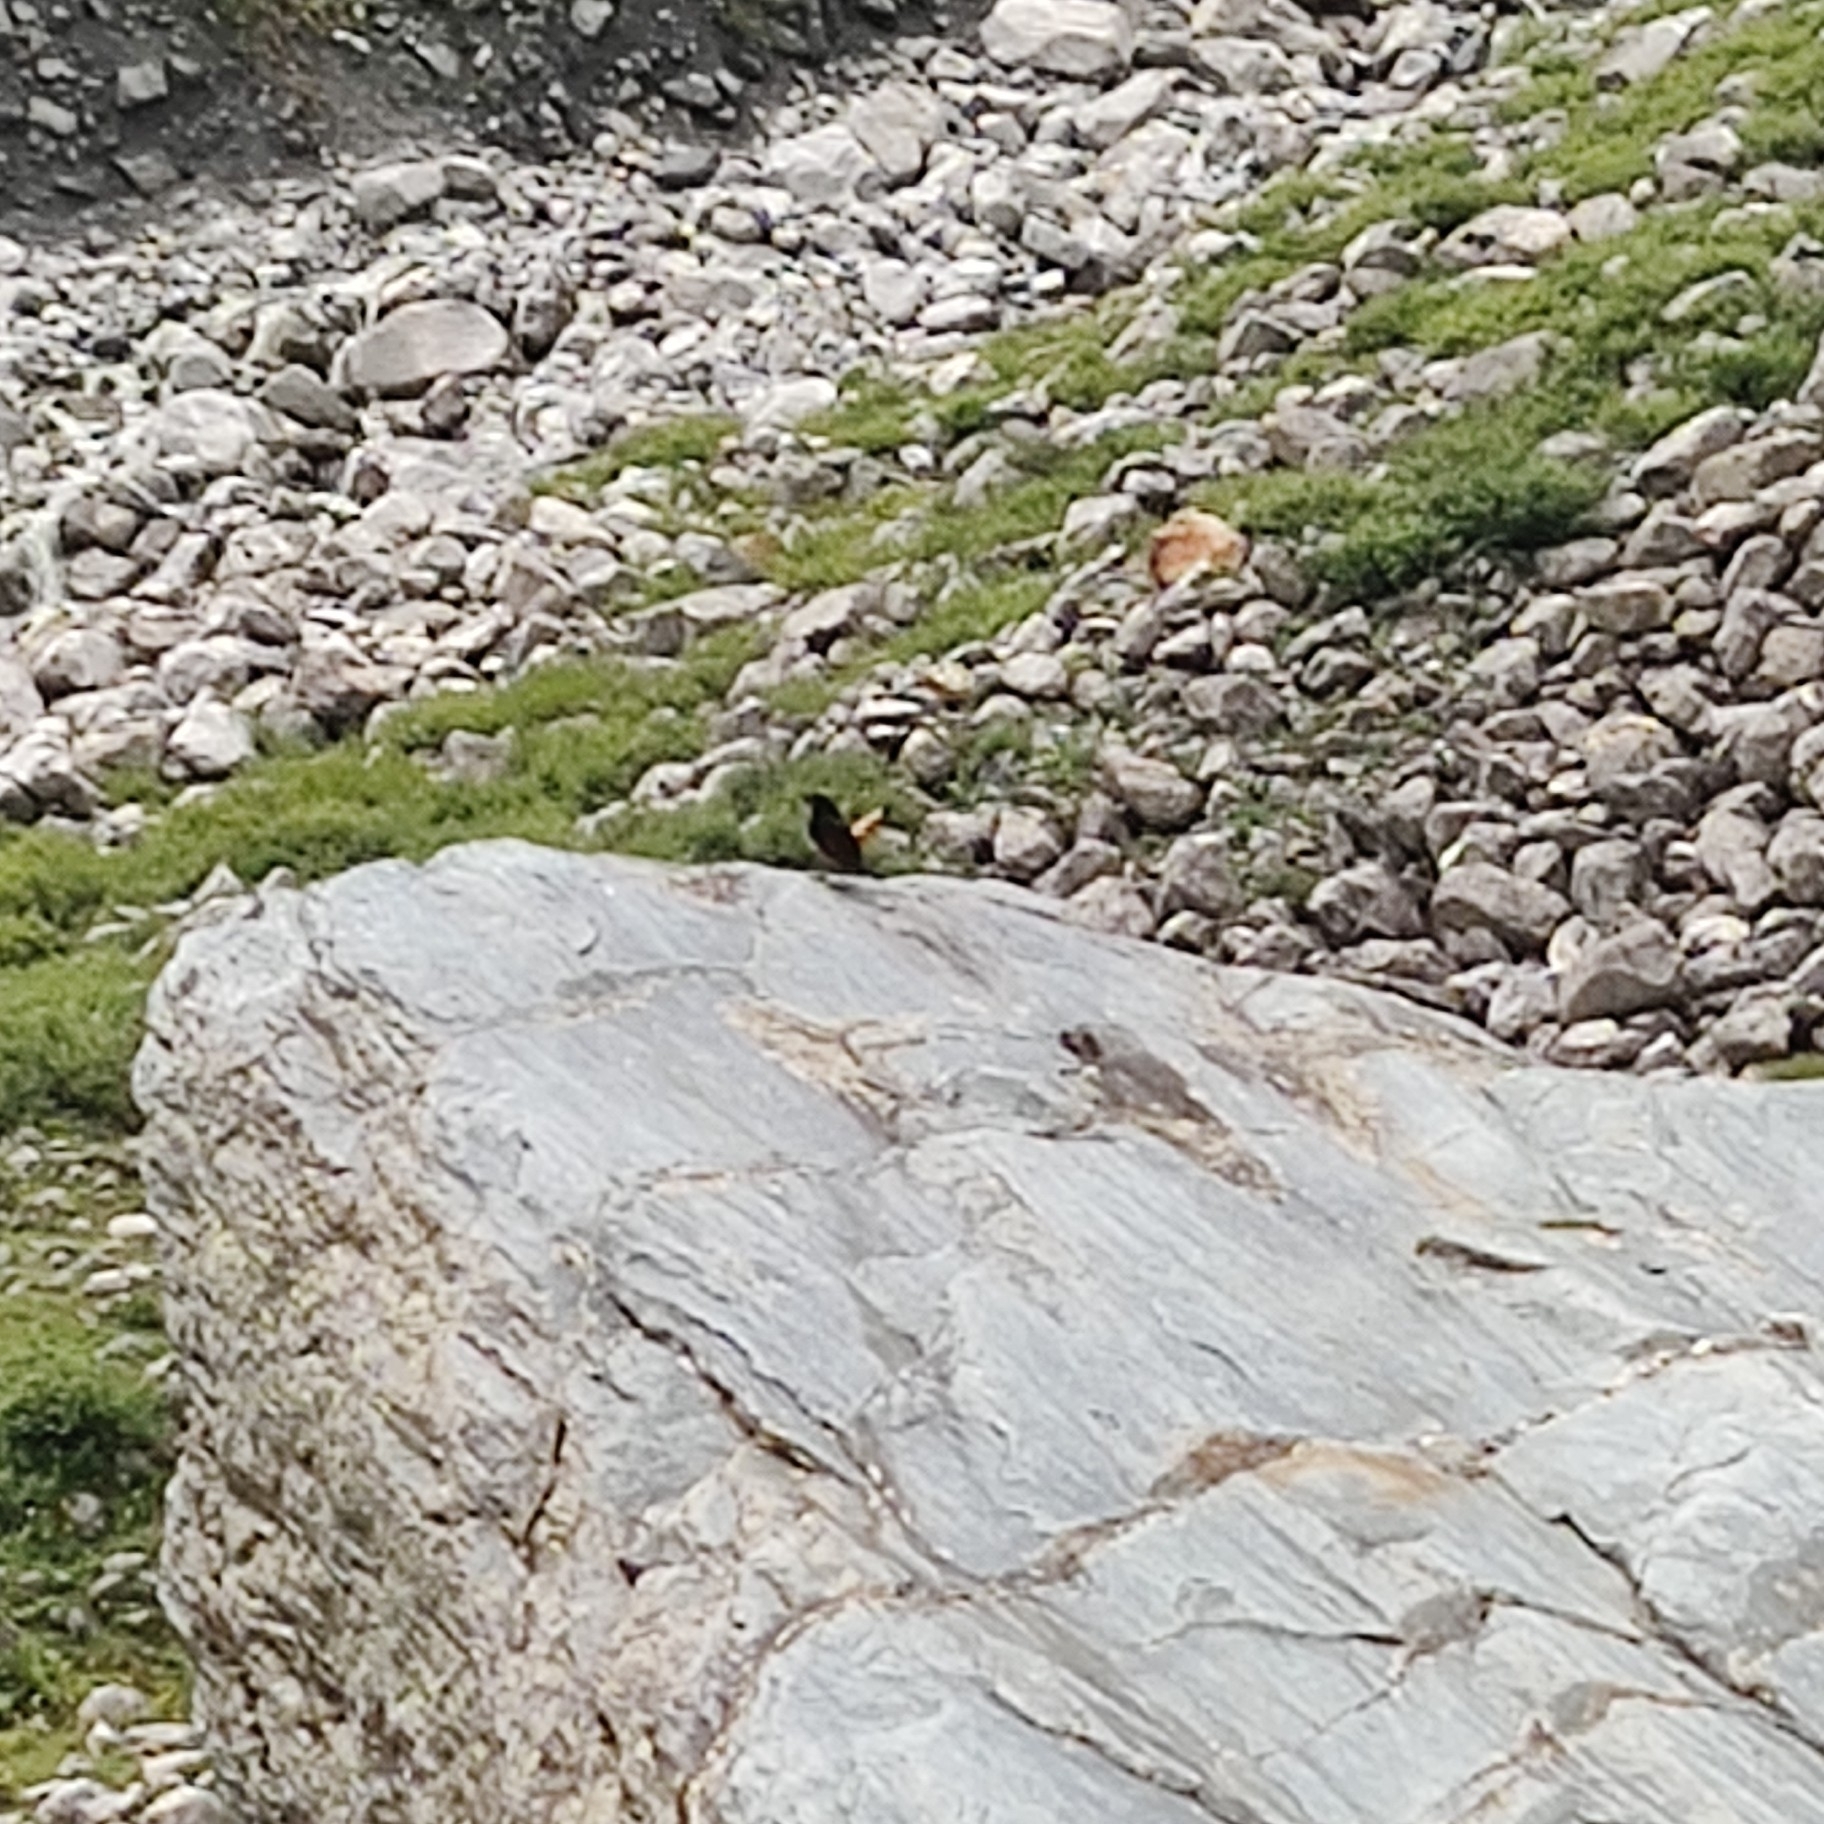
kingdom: Animalia
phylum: Chordata
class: Aves
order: Passeriformes
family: Muscicapidae
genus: Chaimarrornis
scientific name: Chaimarrornis leucocephalus
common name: White-capped redstart
